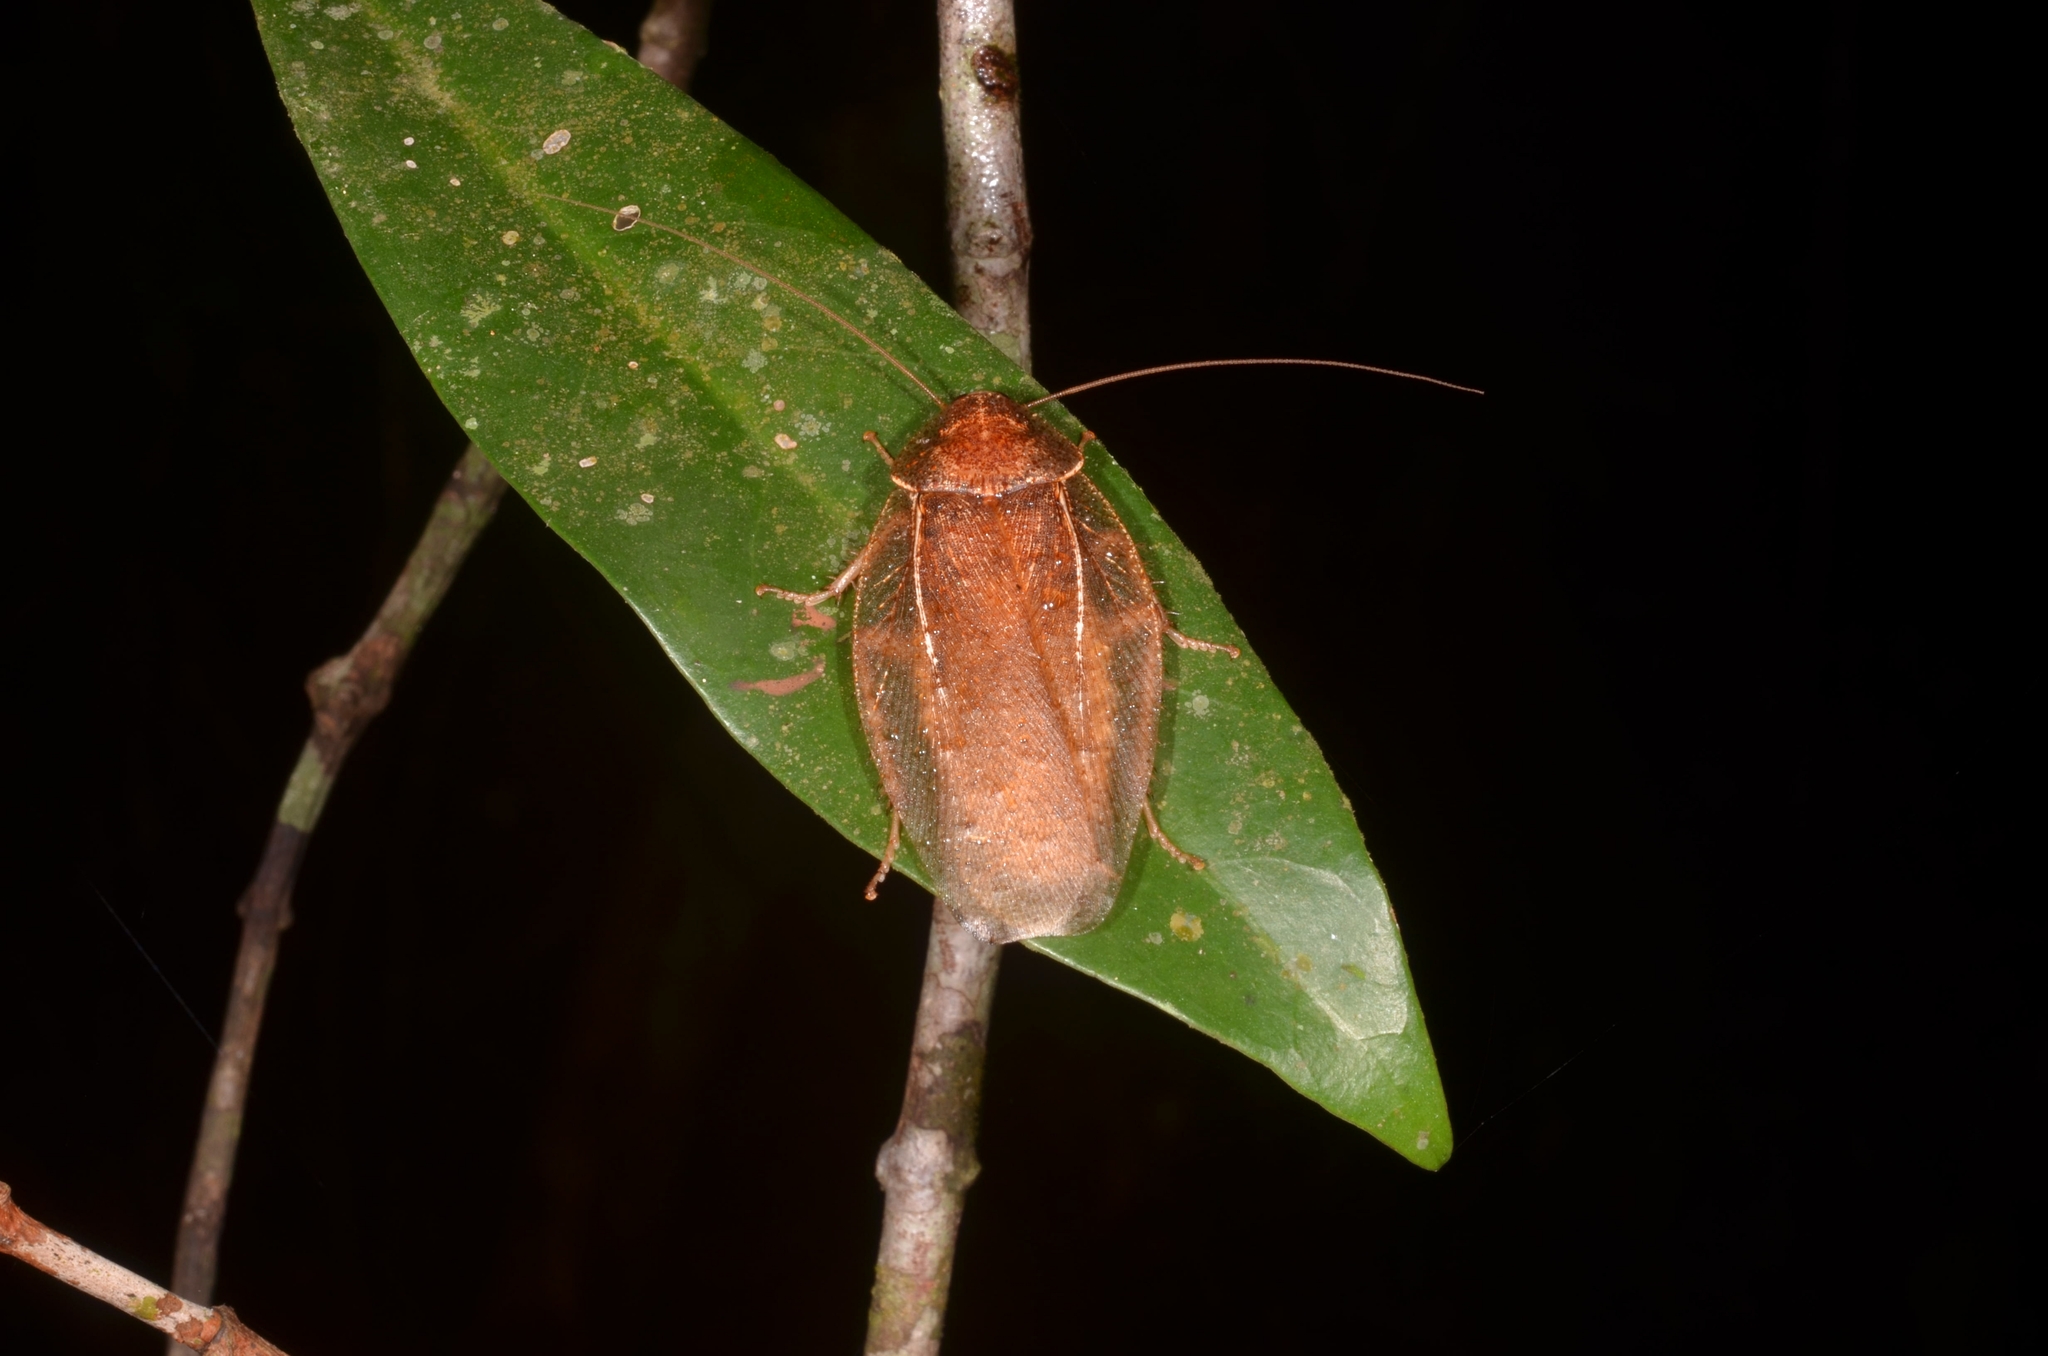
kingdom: Animalia
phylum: Arthropoda
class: Insecta
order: Blattodea
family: Blaberidae
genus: Brephallus
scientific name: Brephallus fruhstorferi
